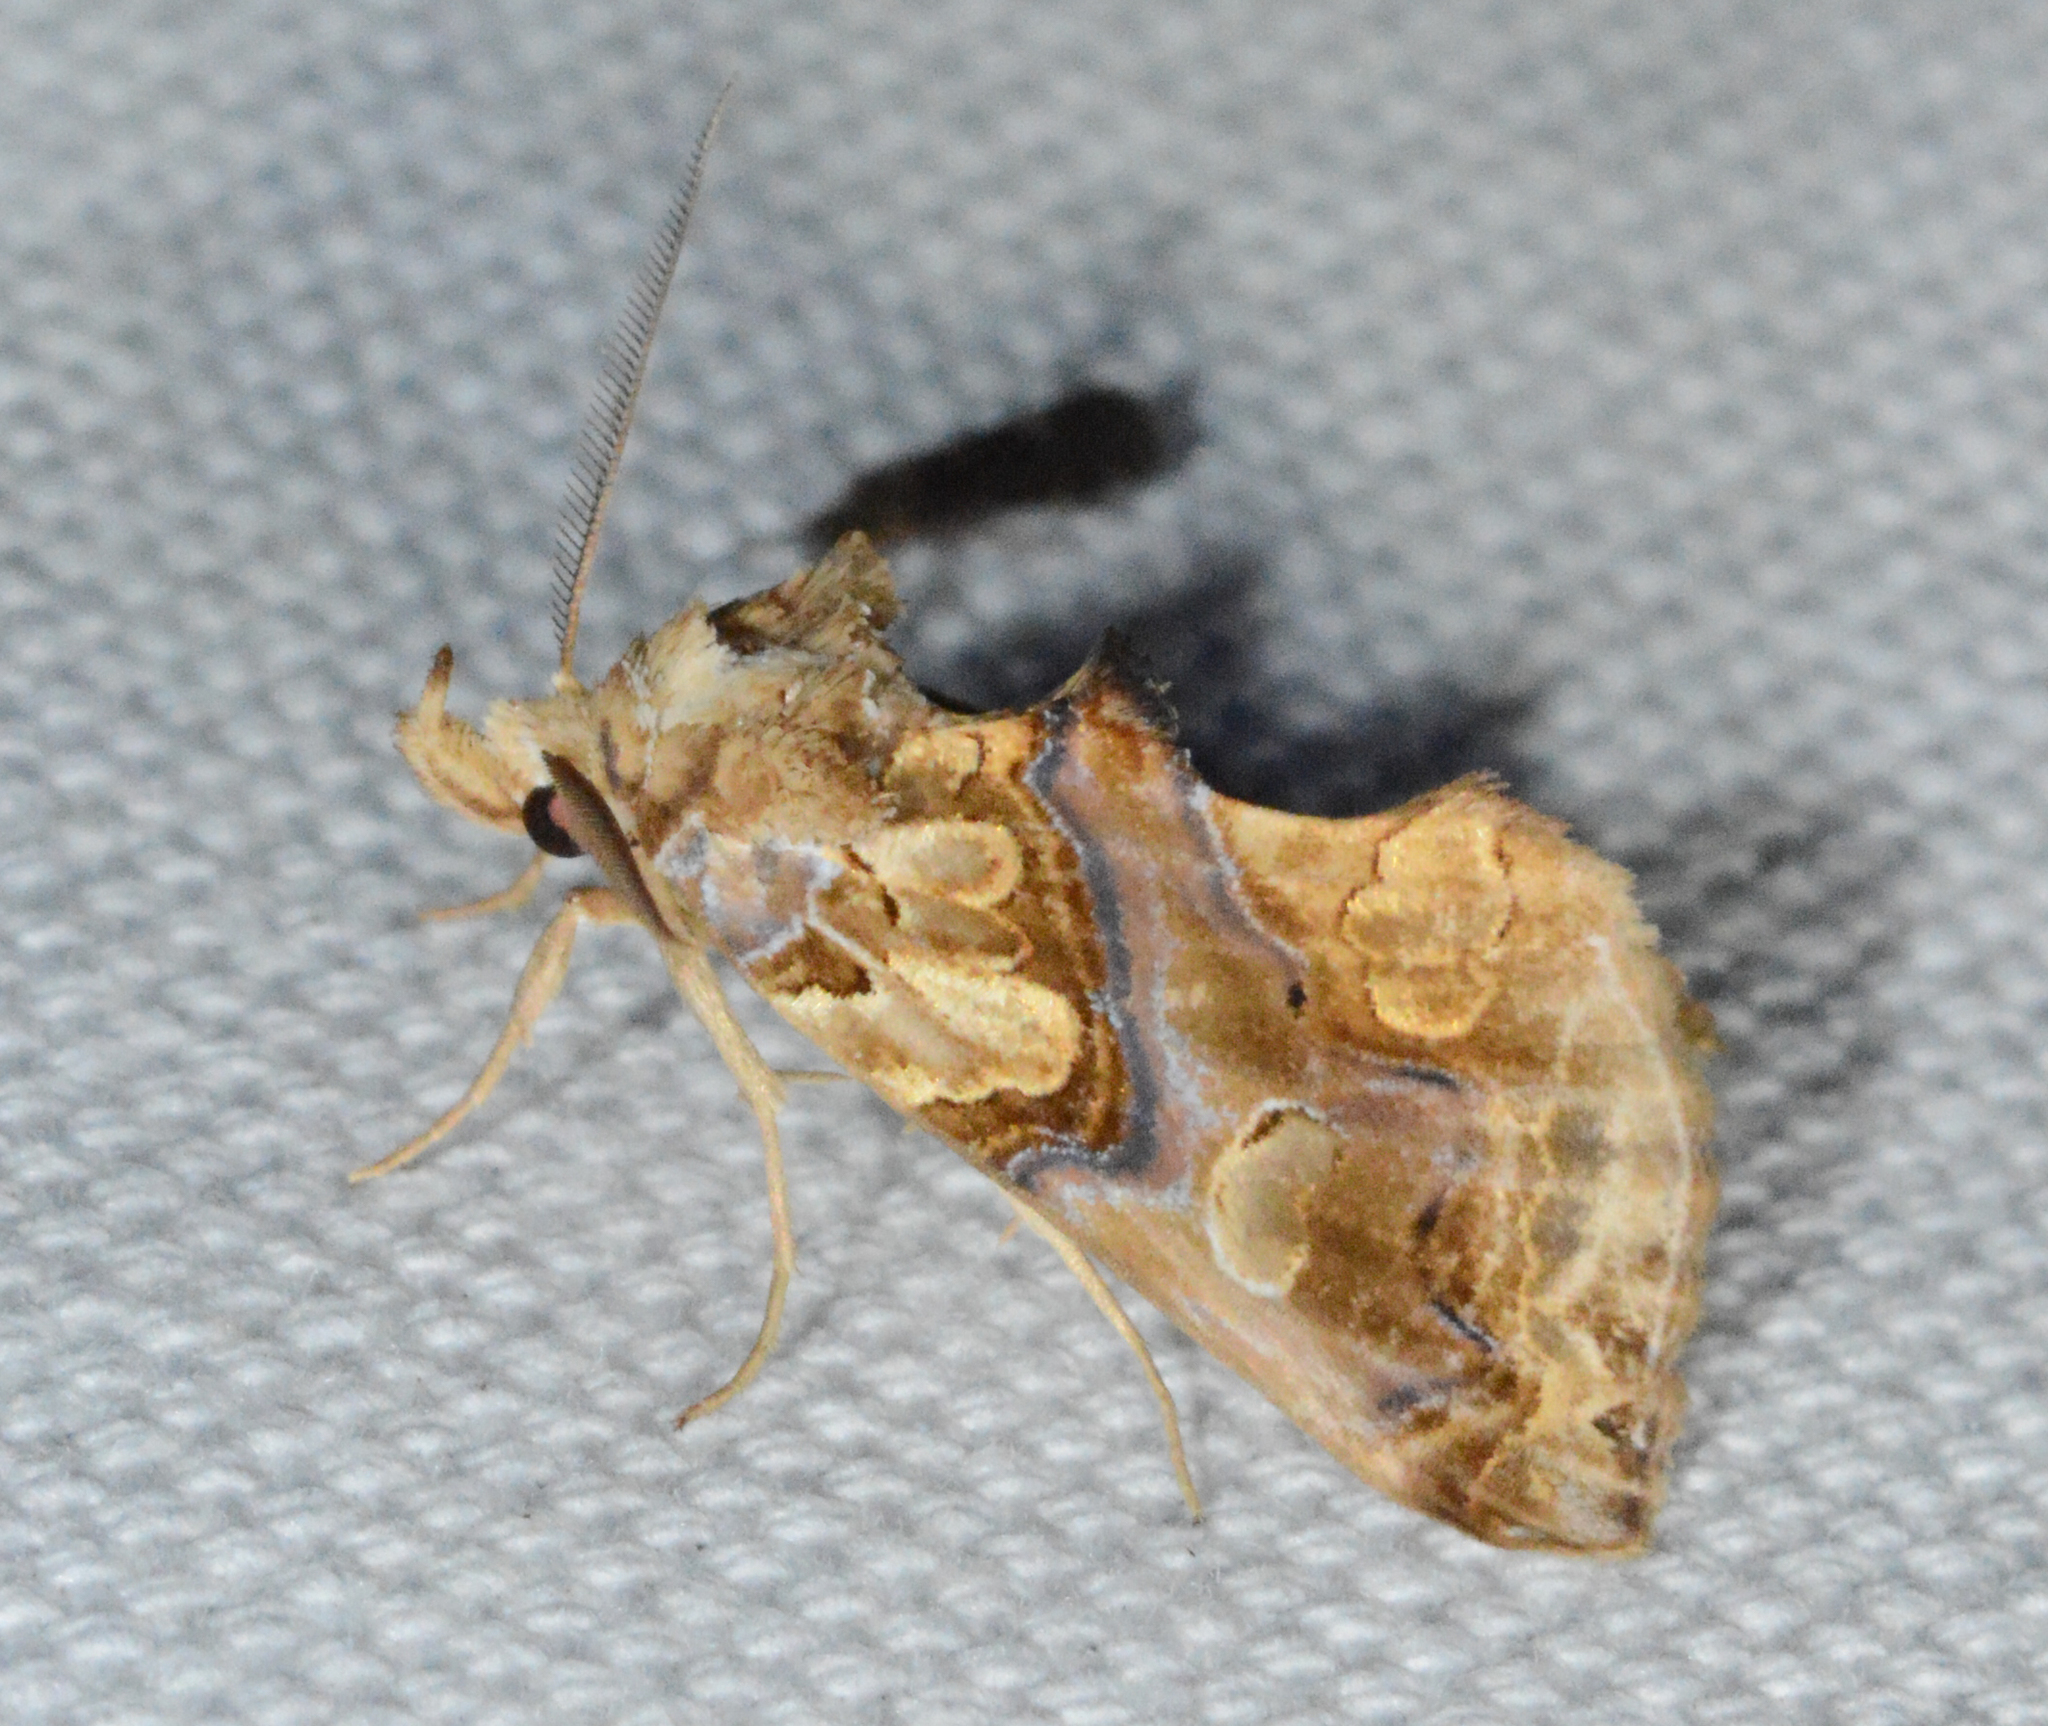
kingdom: Animalia
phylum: Arthropoda
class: Insecta
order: Lepidoptera
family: Erebidae
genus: Plusiodonta
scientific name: Plusiodonta compressipalpis
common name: Moonseed moth
